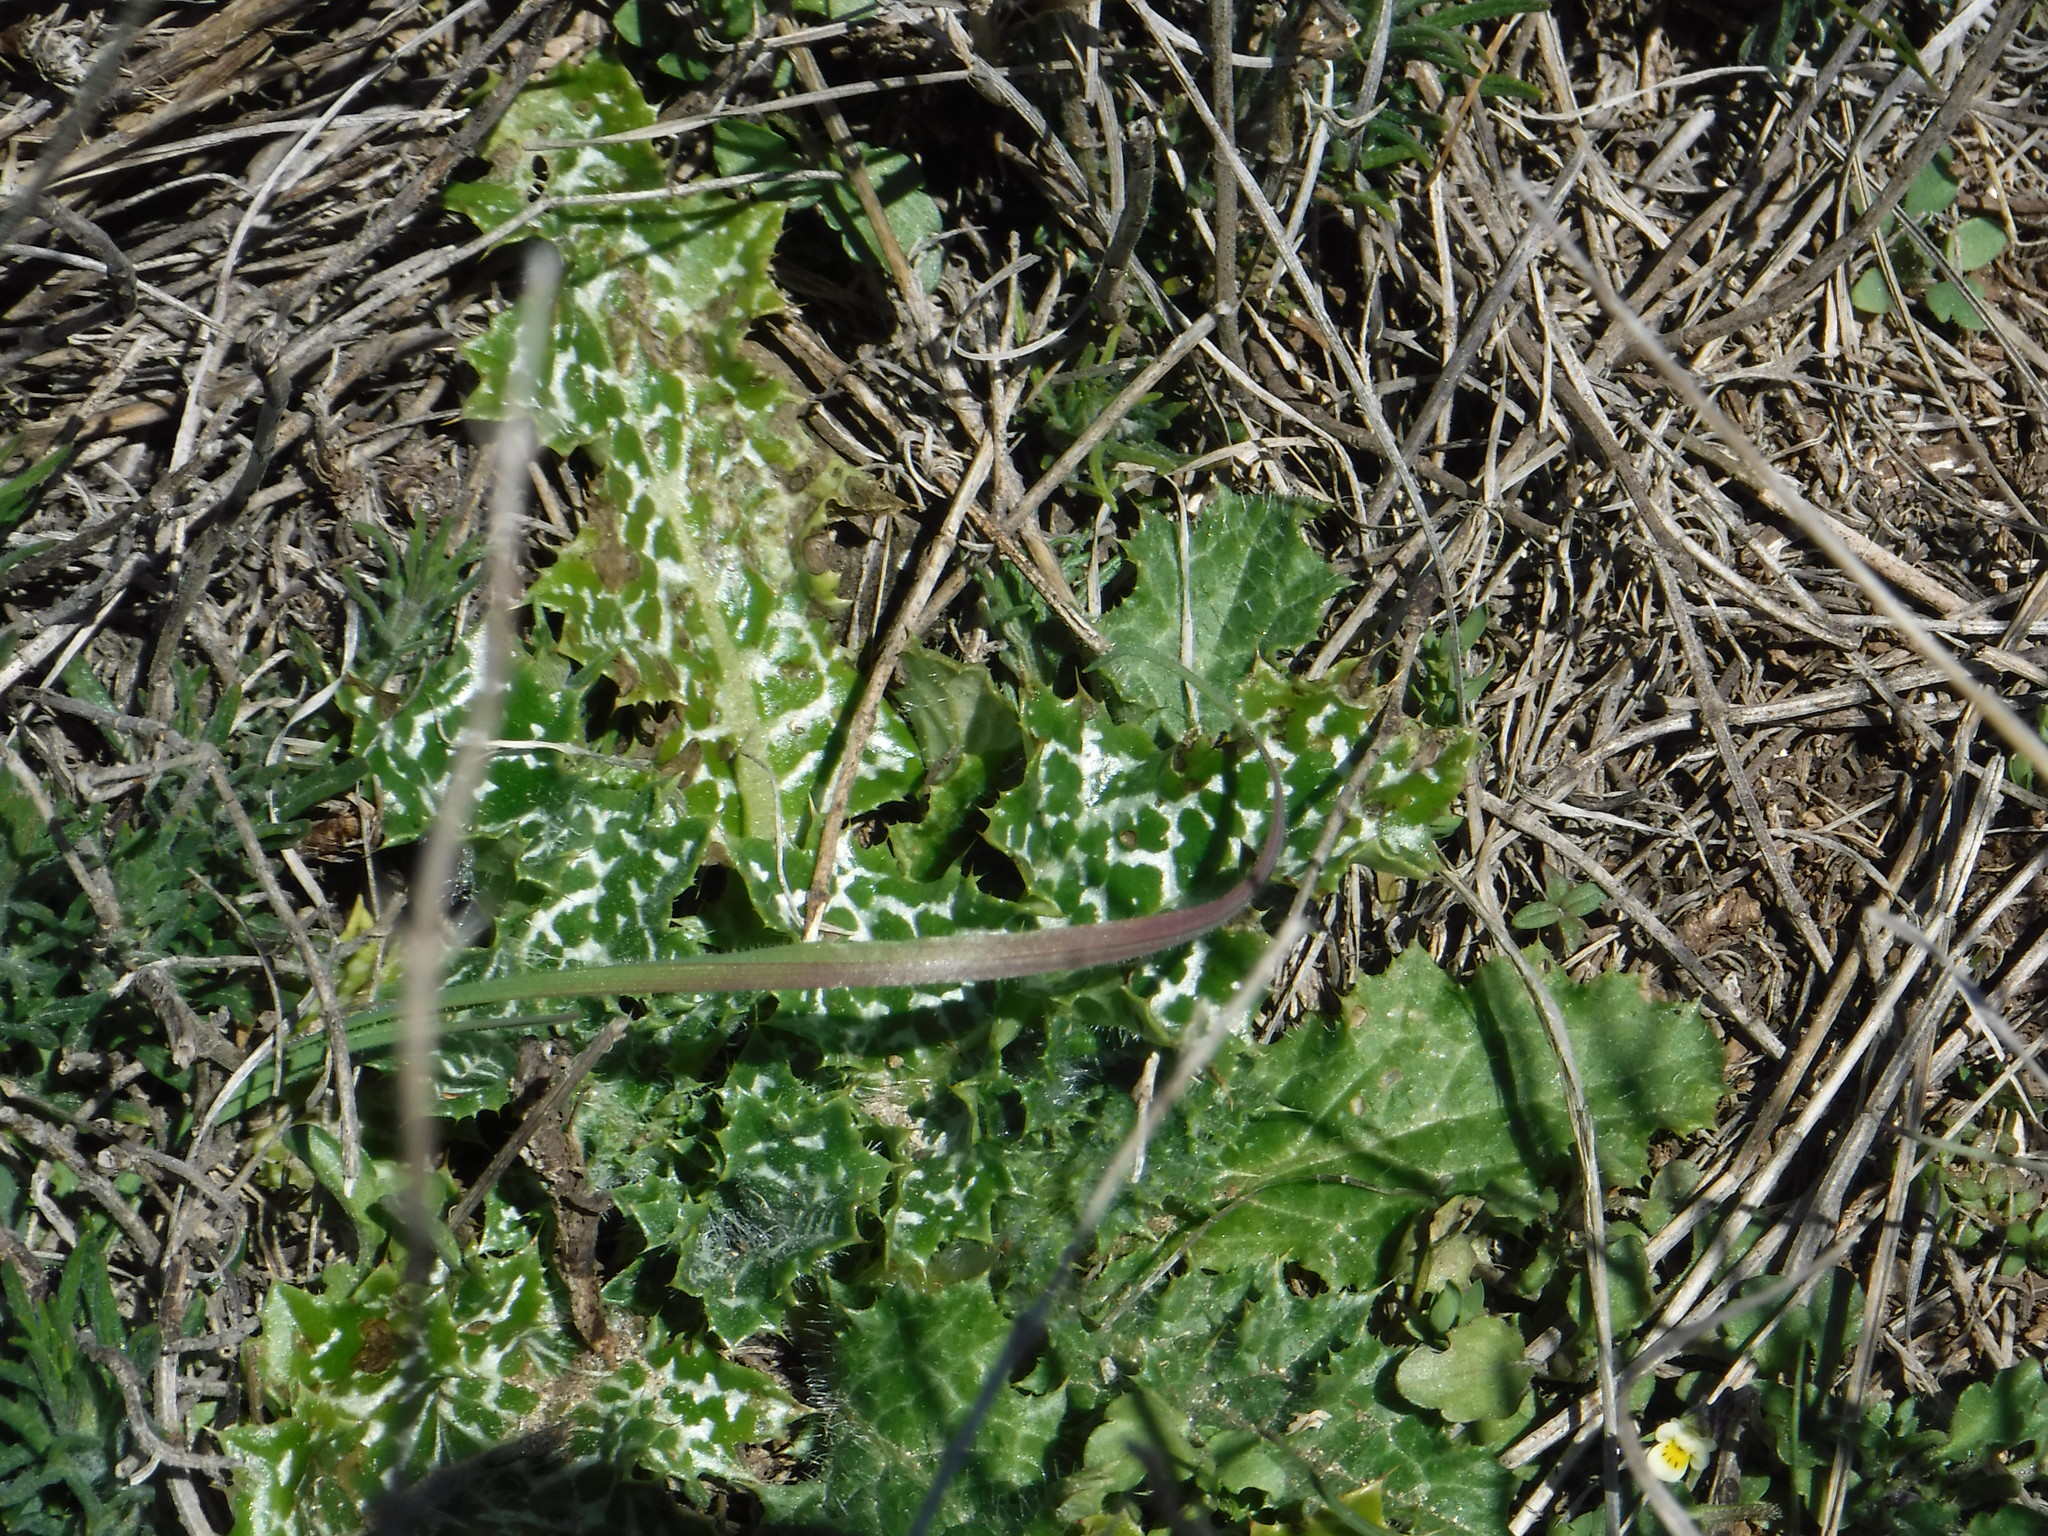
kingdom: Plantae
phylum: Tracheophyta
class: Magnoliopsida
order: Asterales
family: Asteraceae
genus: Silybum
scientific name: Silybum marianum
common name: Milk thistle
